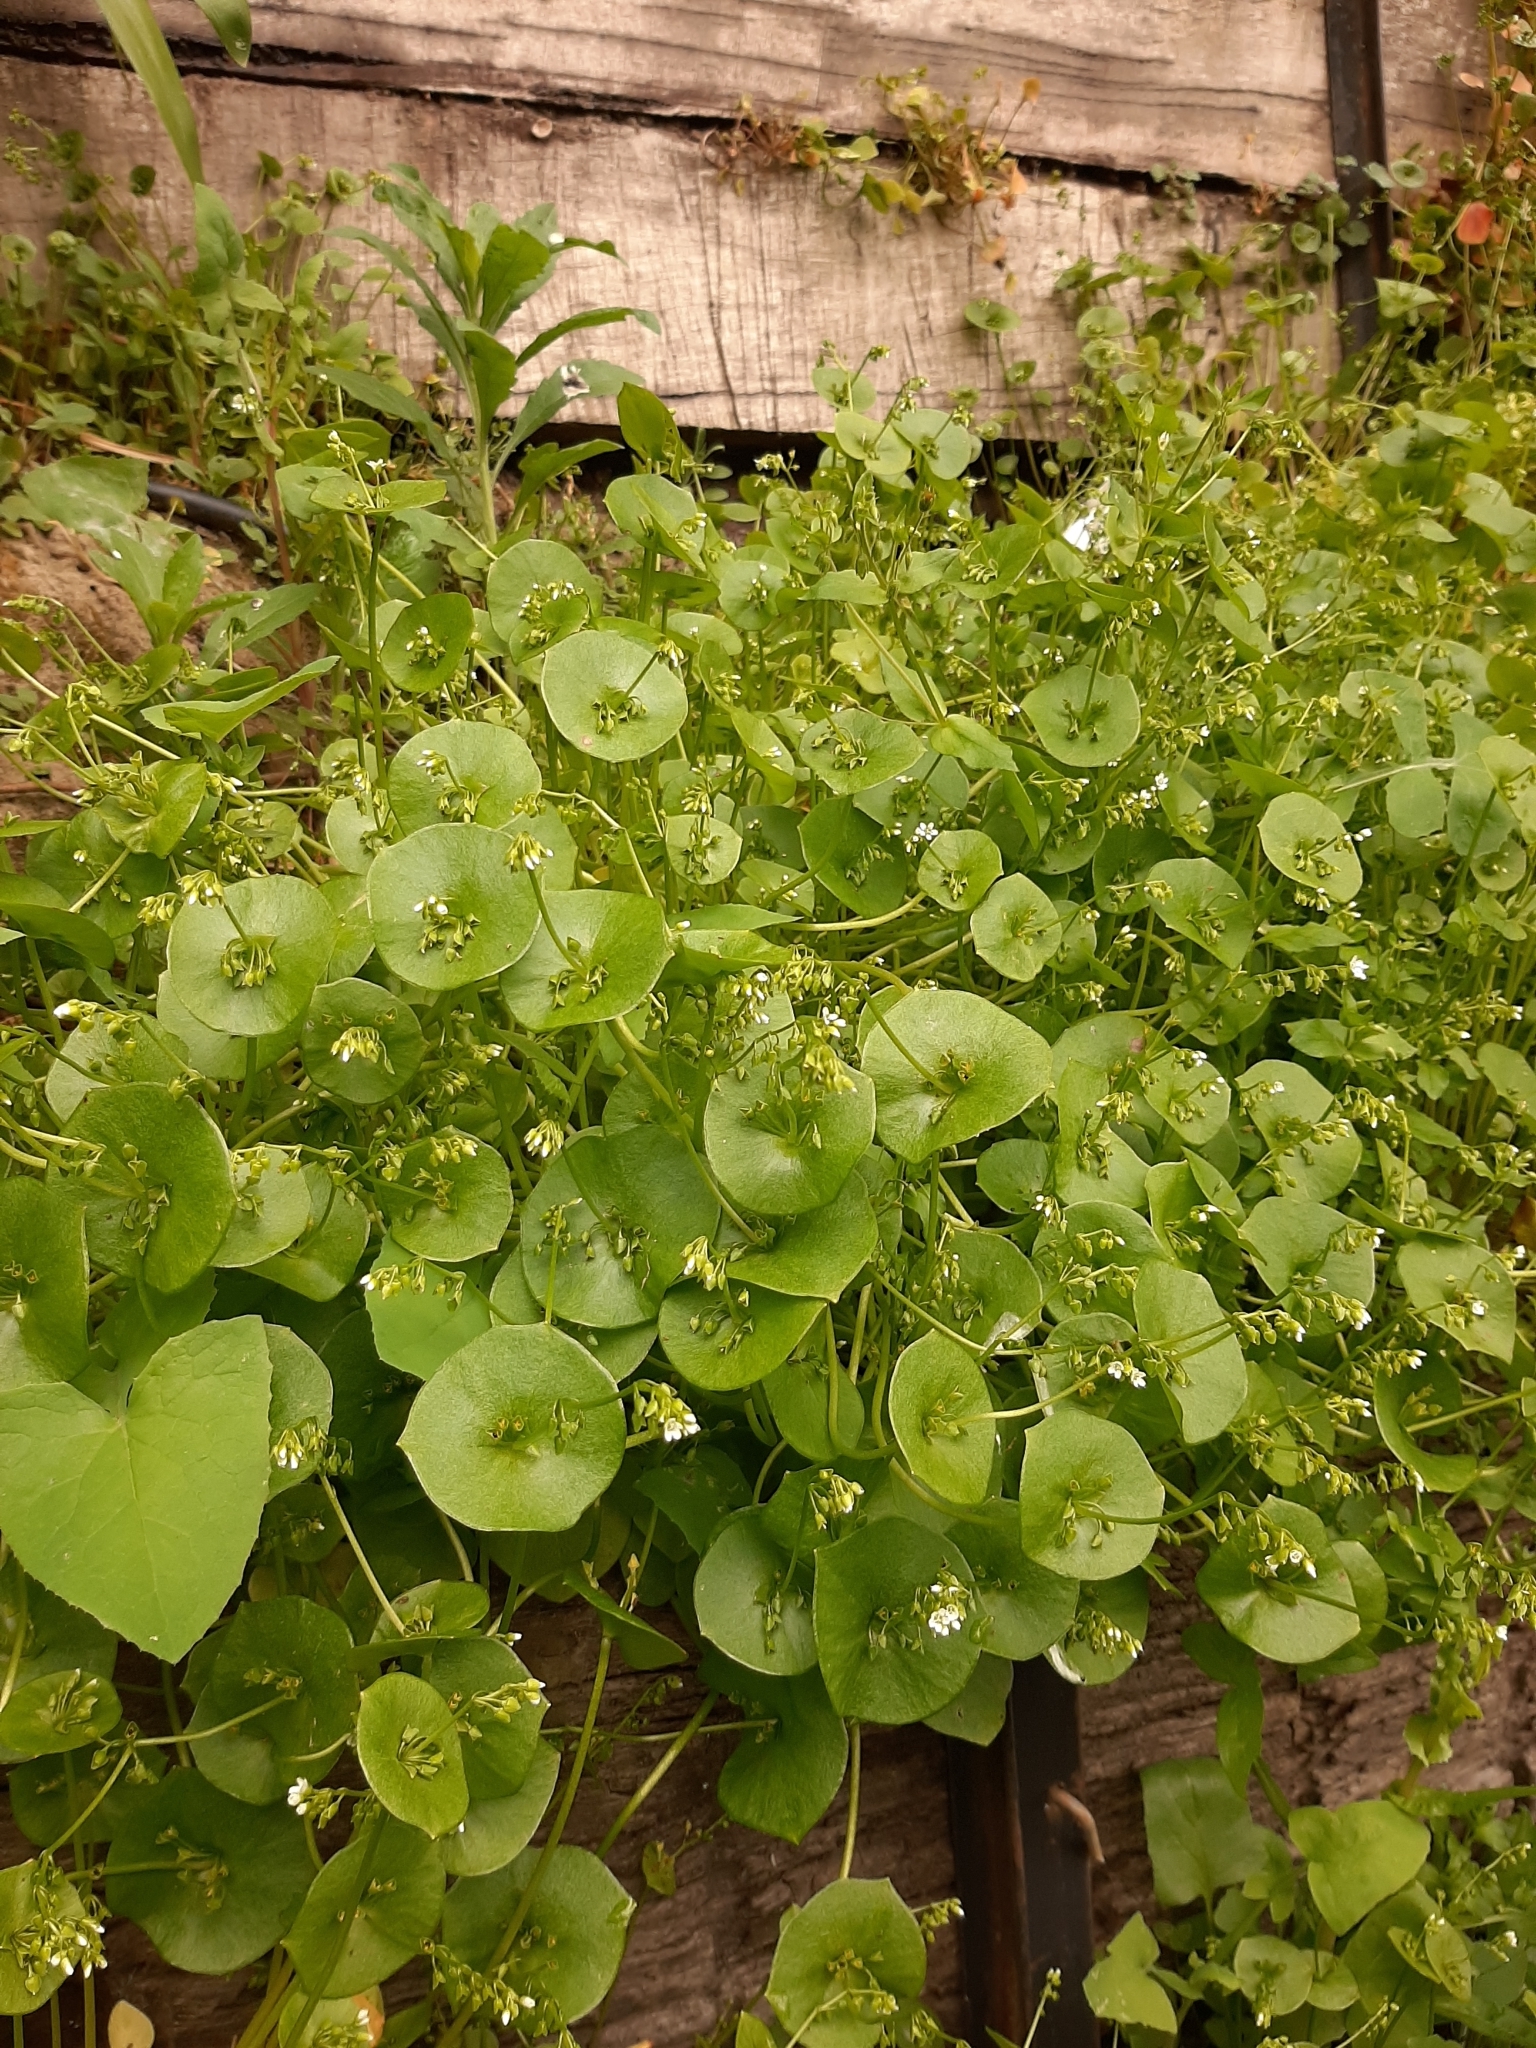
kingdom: Plantae
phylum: Tracheophyta
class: Magnoliopsida
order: Caryophyllales
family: Montiaceae
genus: Claytonia
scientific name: Claytonia perfoliata
